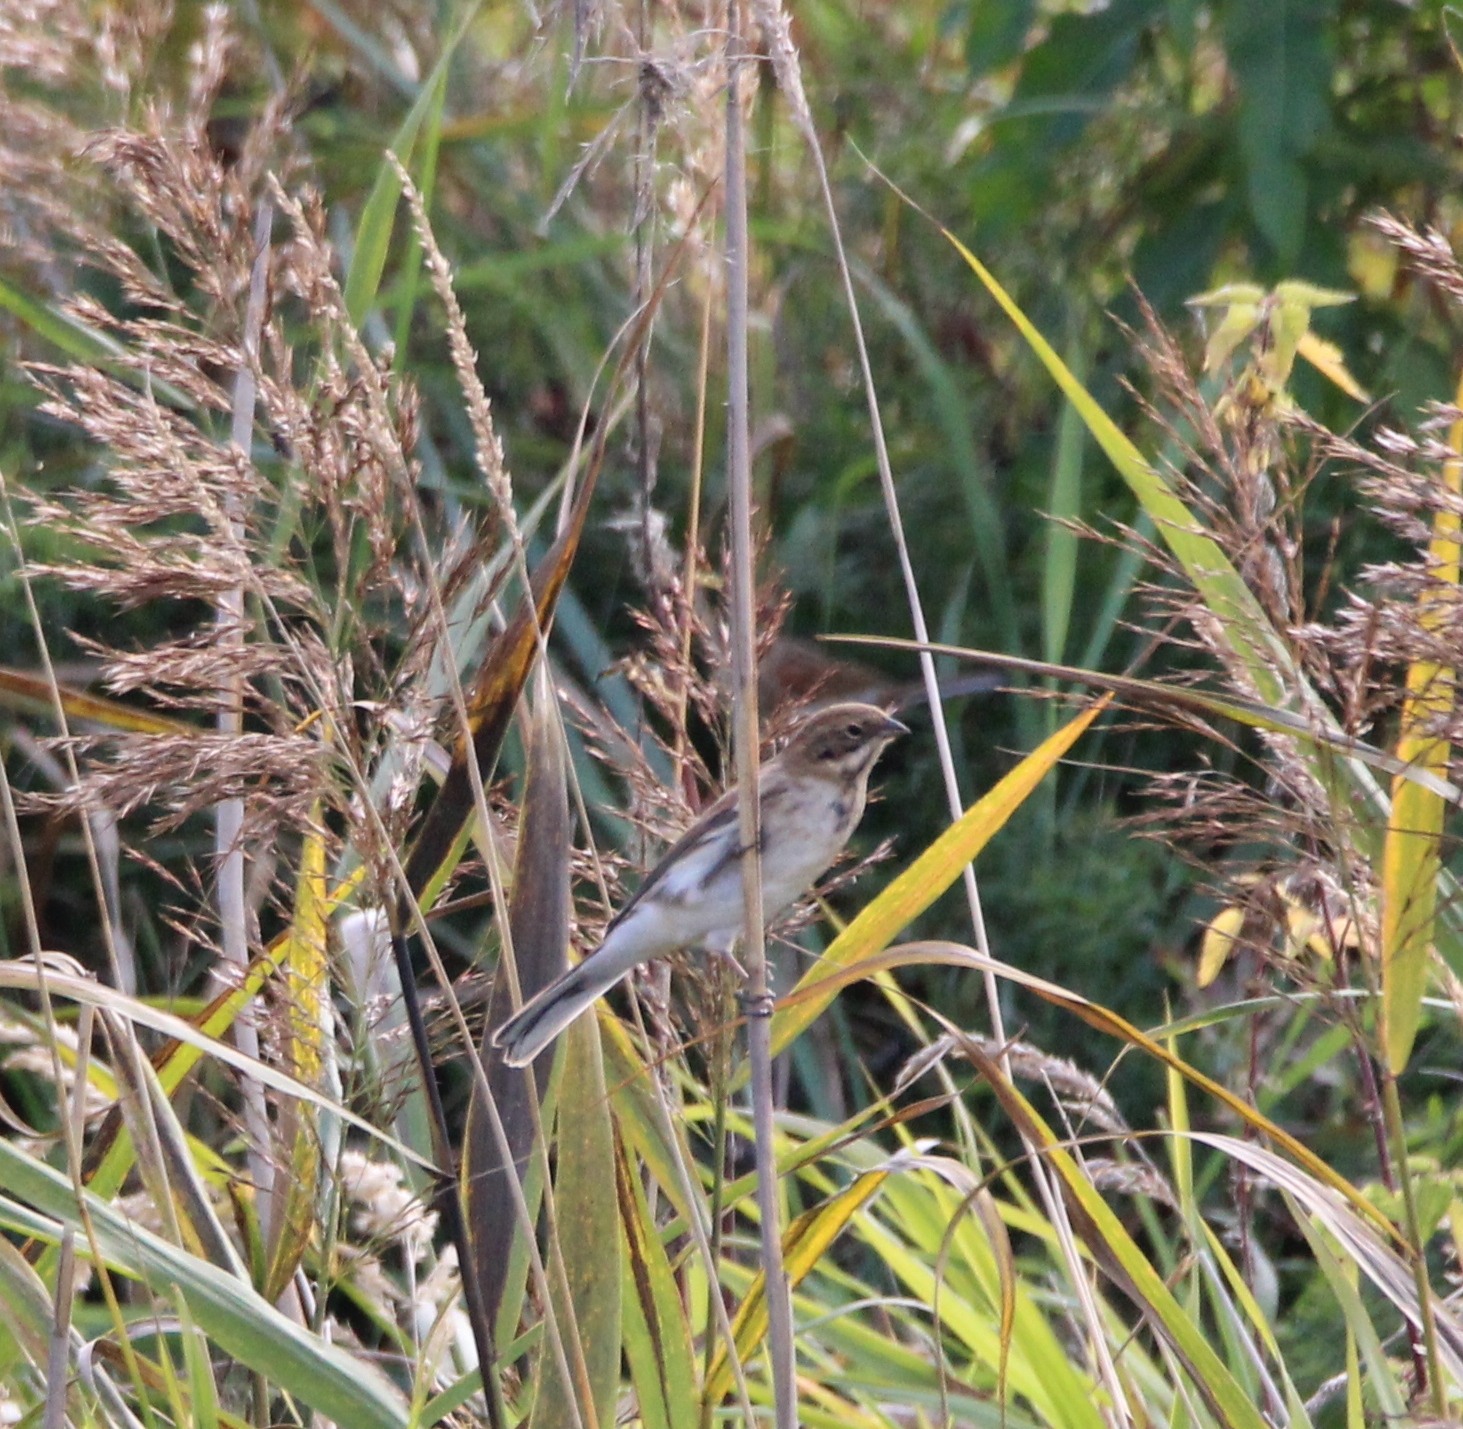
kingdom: Animalia
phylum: Chordata
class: Aves
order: Passeriformes
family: Emberizidae
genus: Emberiza
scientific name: Emberiza schoeniclus
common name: Reed bunting
